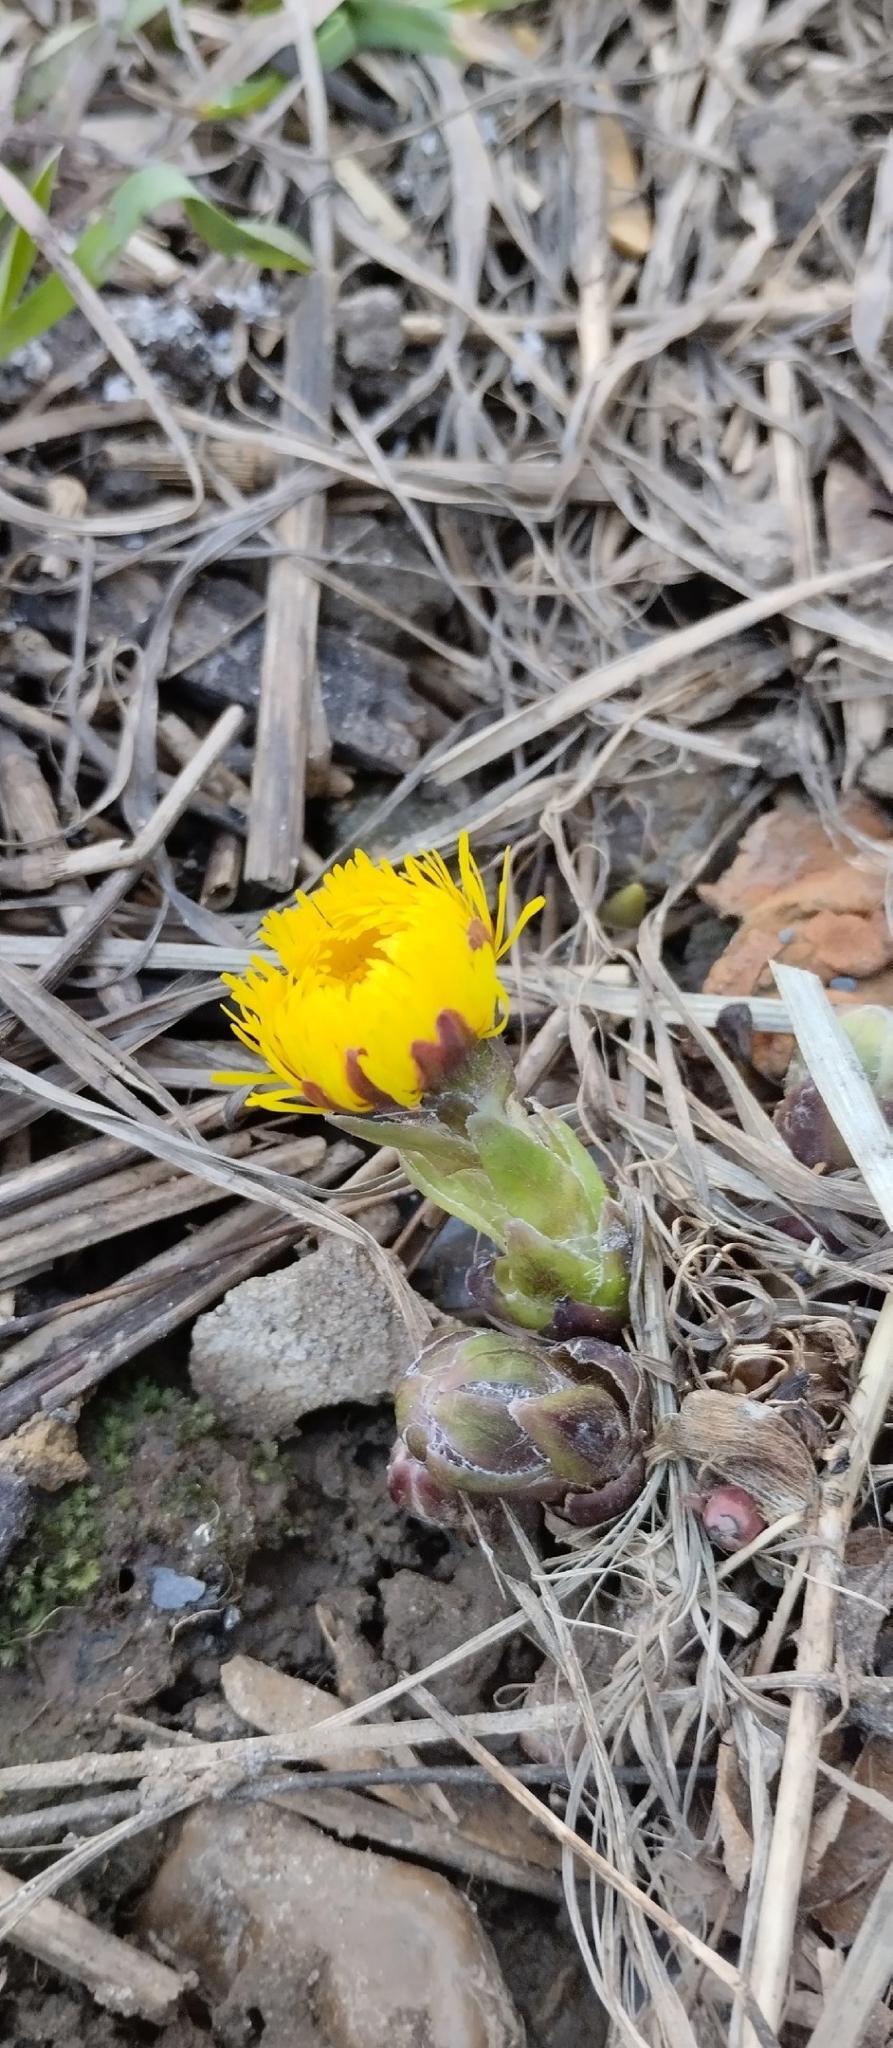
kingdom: Plantae
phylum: Tracheophyta
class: Magnoliopsida
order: Asterales
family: Asteraceae
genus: Tussilago
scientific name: Tussilago farfara
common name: Coltsfoot
